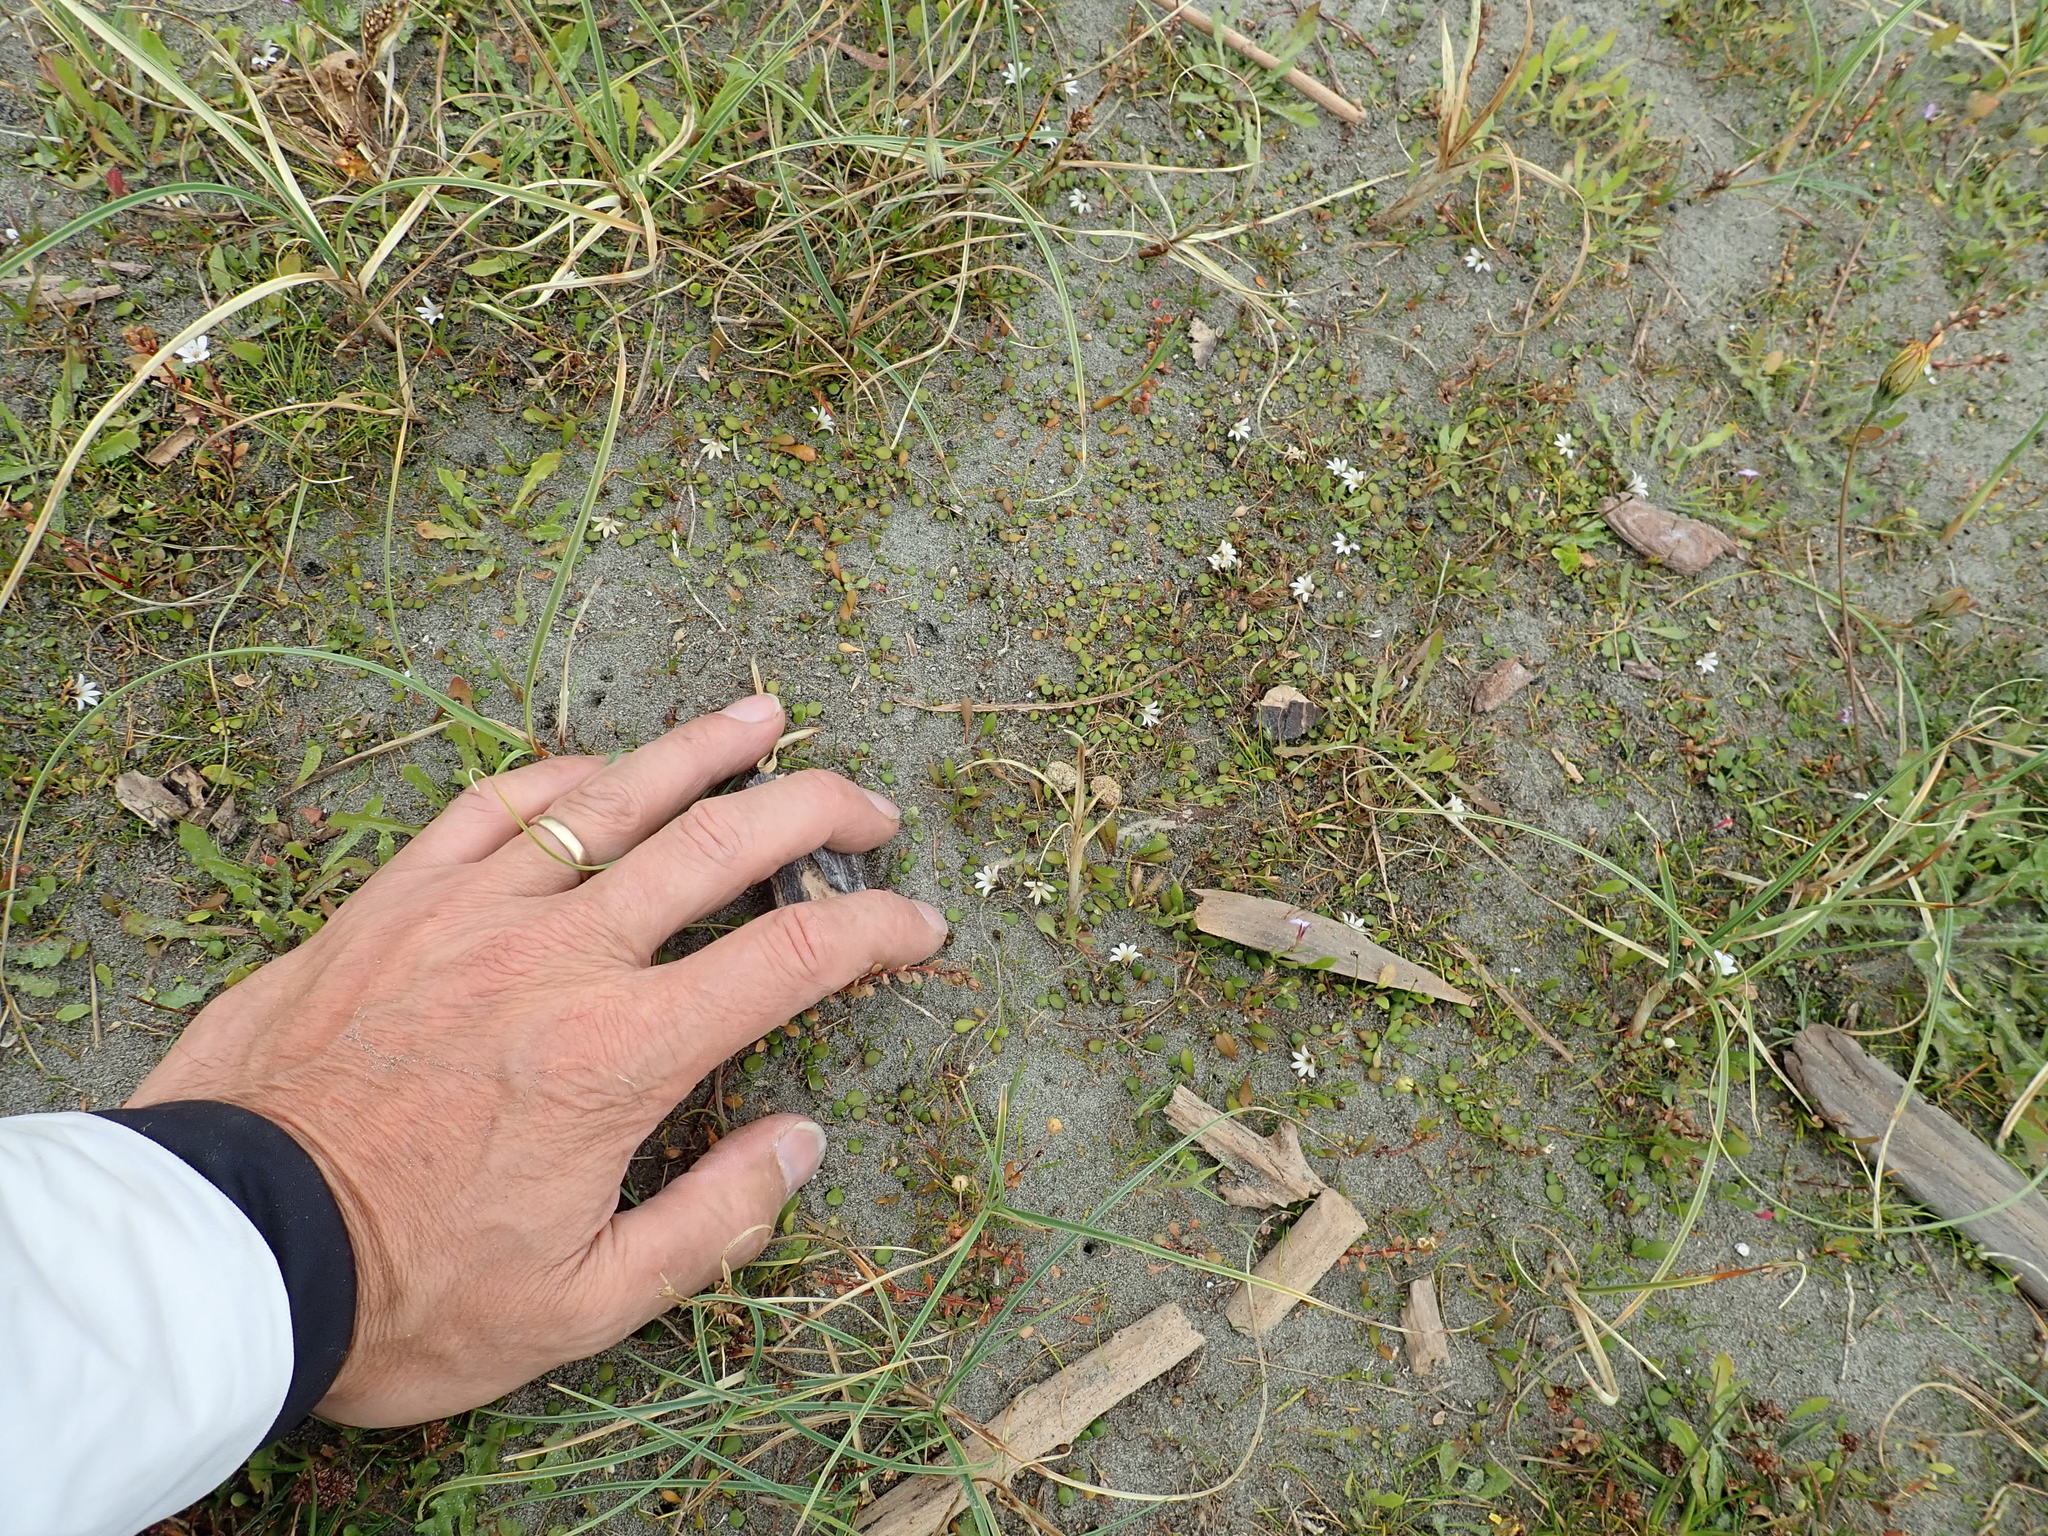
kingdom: Plantae
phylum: Tracheophyta
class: Magnoliopsida
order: Asterales
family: Goodeniaceae
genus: Goodenia
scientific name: Goodenia heenanii
